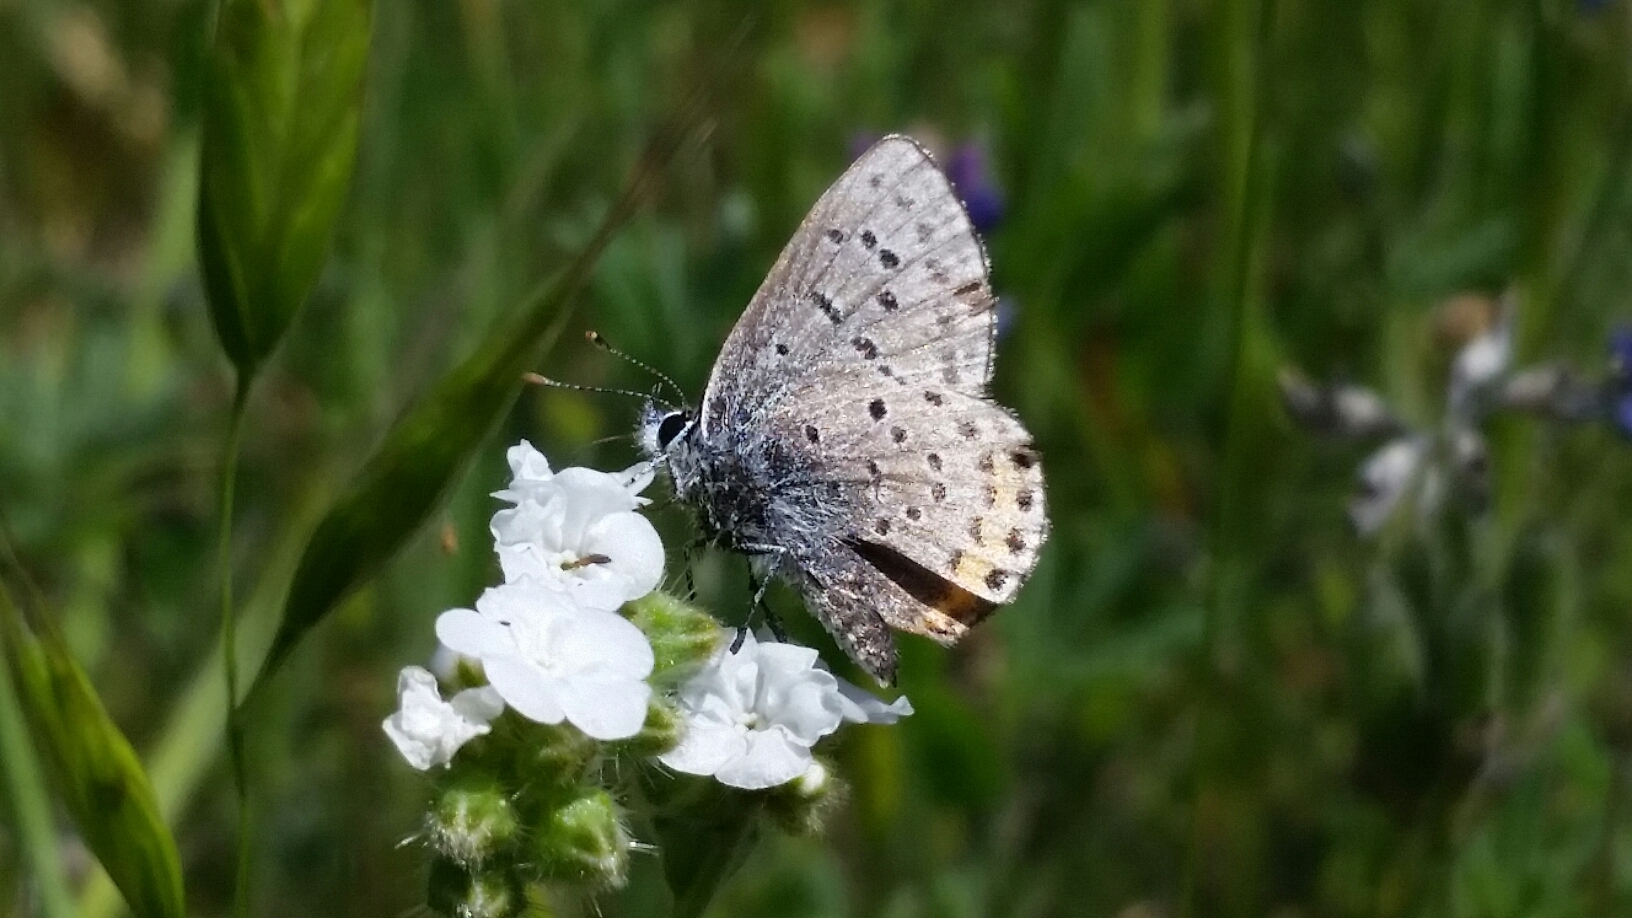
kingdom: Animalia
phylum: Arthropoda
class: Insecta
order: Lepidoptera
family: Lycaenidae
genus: Icaricia
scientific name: Icaricia acmon
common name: Acmon blue
